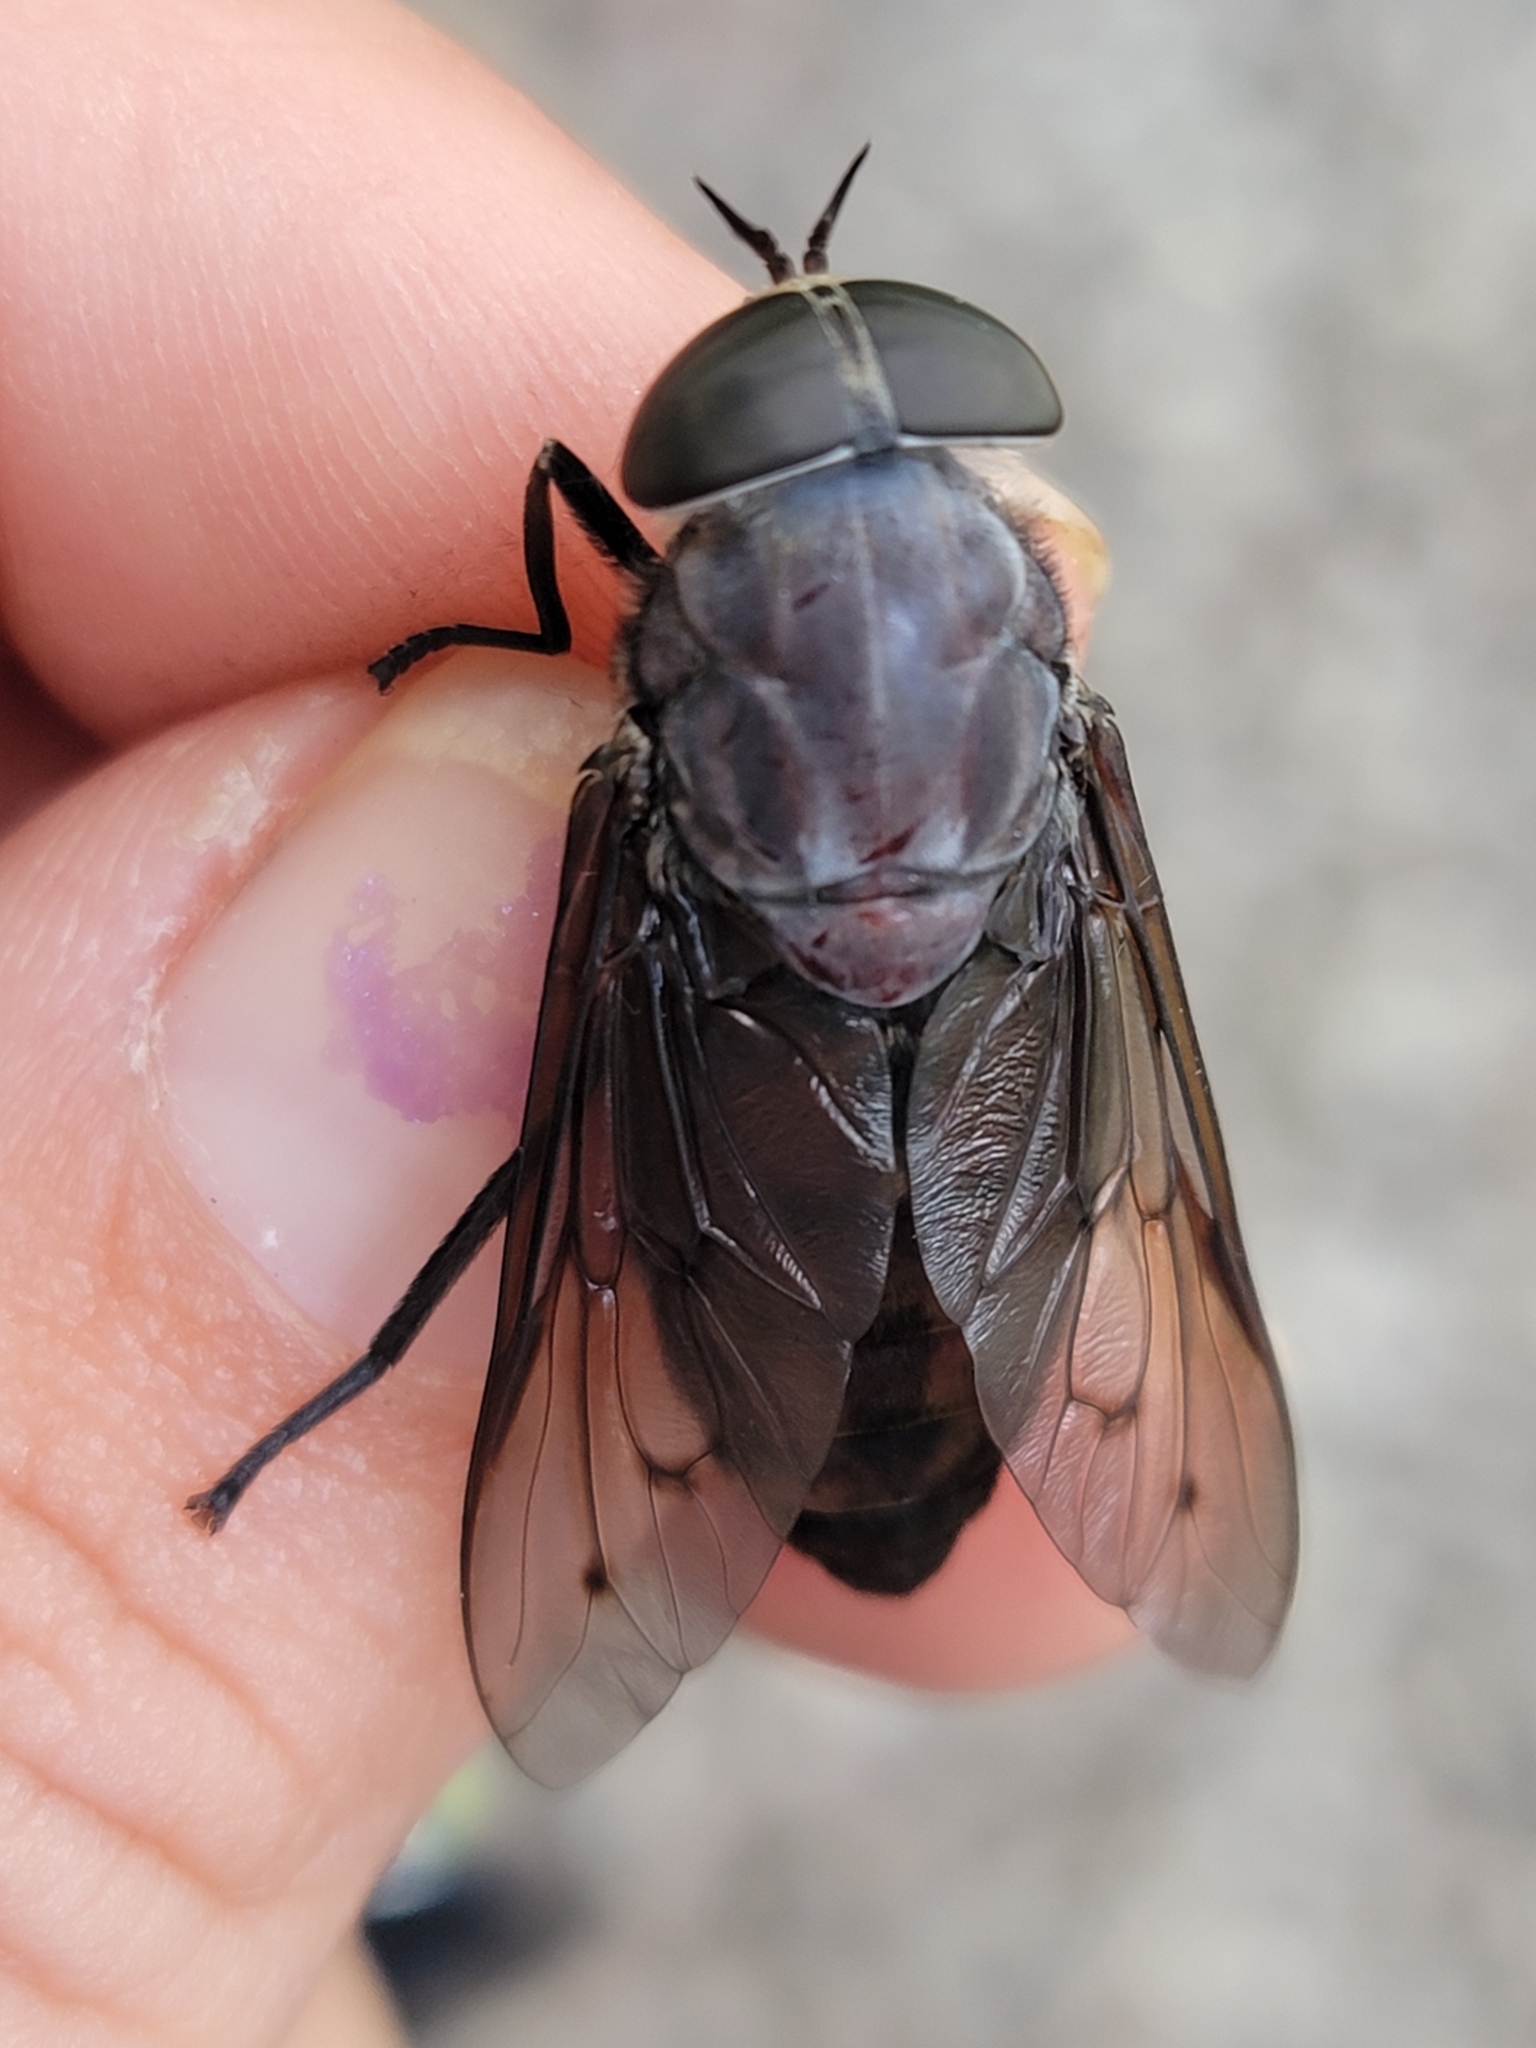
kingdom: Animalia
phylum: Arthropoda
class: Insecta
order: Diptera
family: Tabanidae
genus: Tabanus
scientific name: Tabanus gladiator
